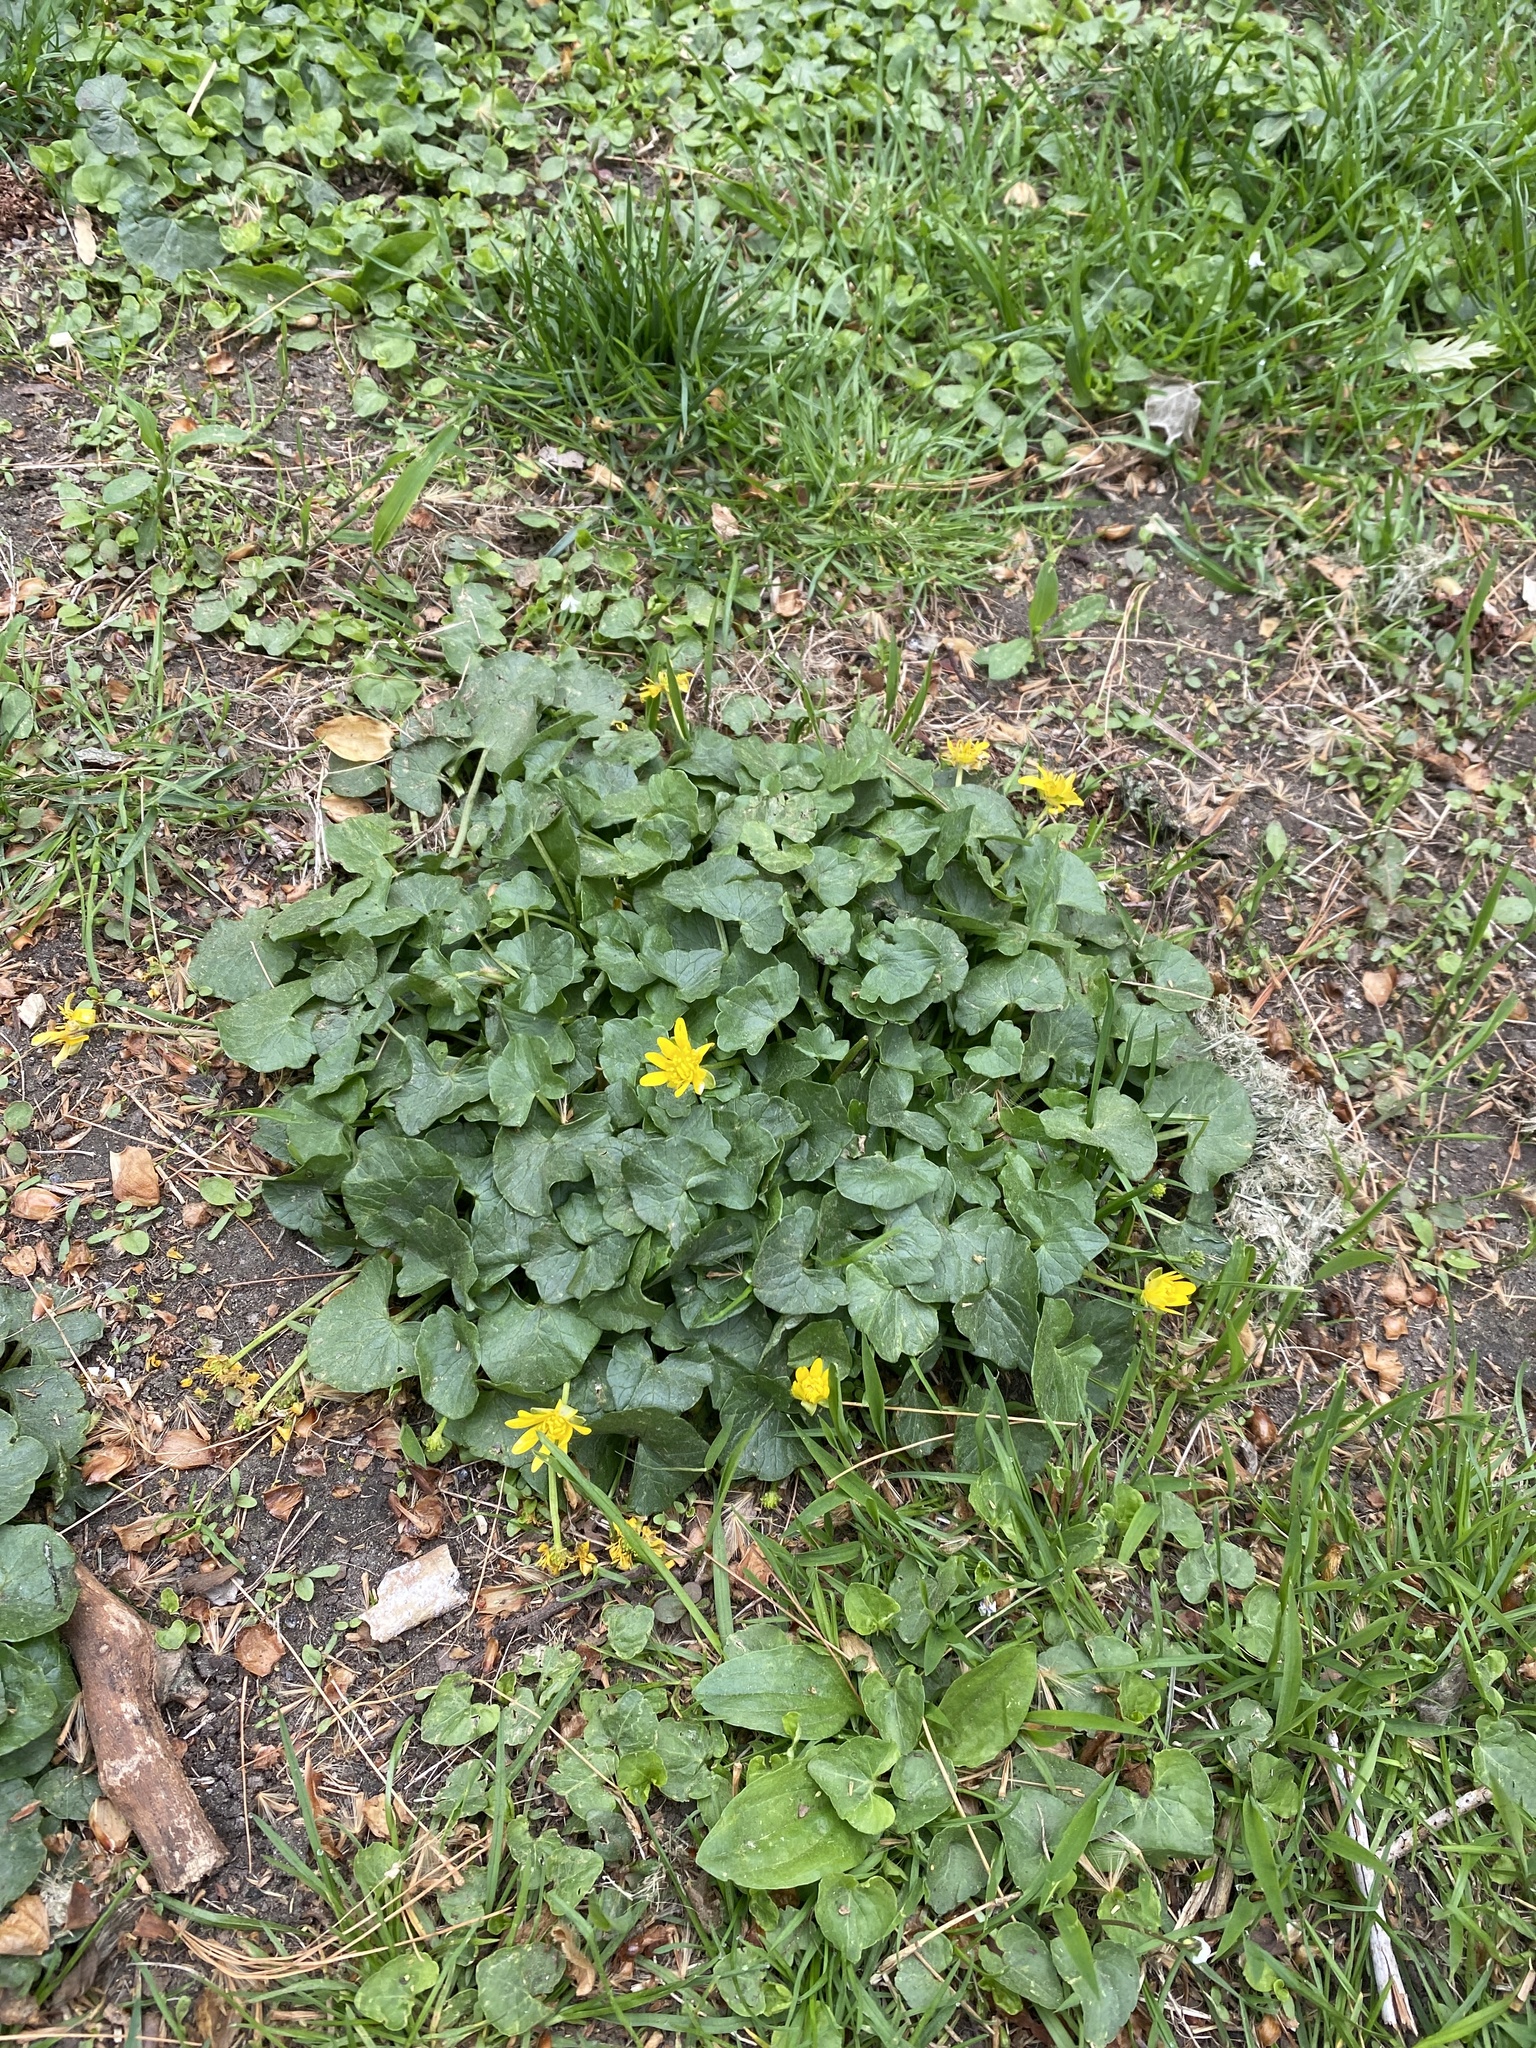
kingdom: Plantae
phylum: Tracheophyta
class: Magnoliopsida
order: Ranunculales
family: Ranunculaceae
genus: Ficaria
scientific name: Ficaria verna
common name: Lesser celandine
